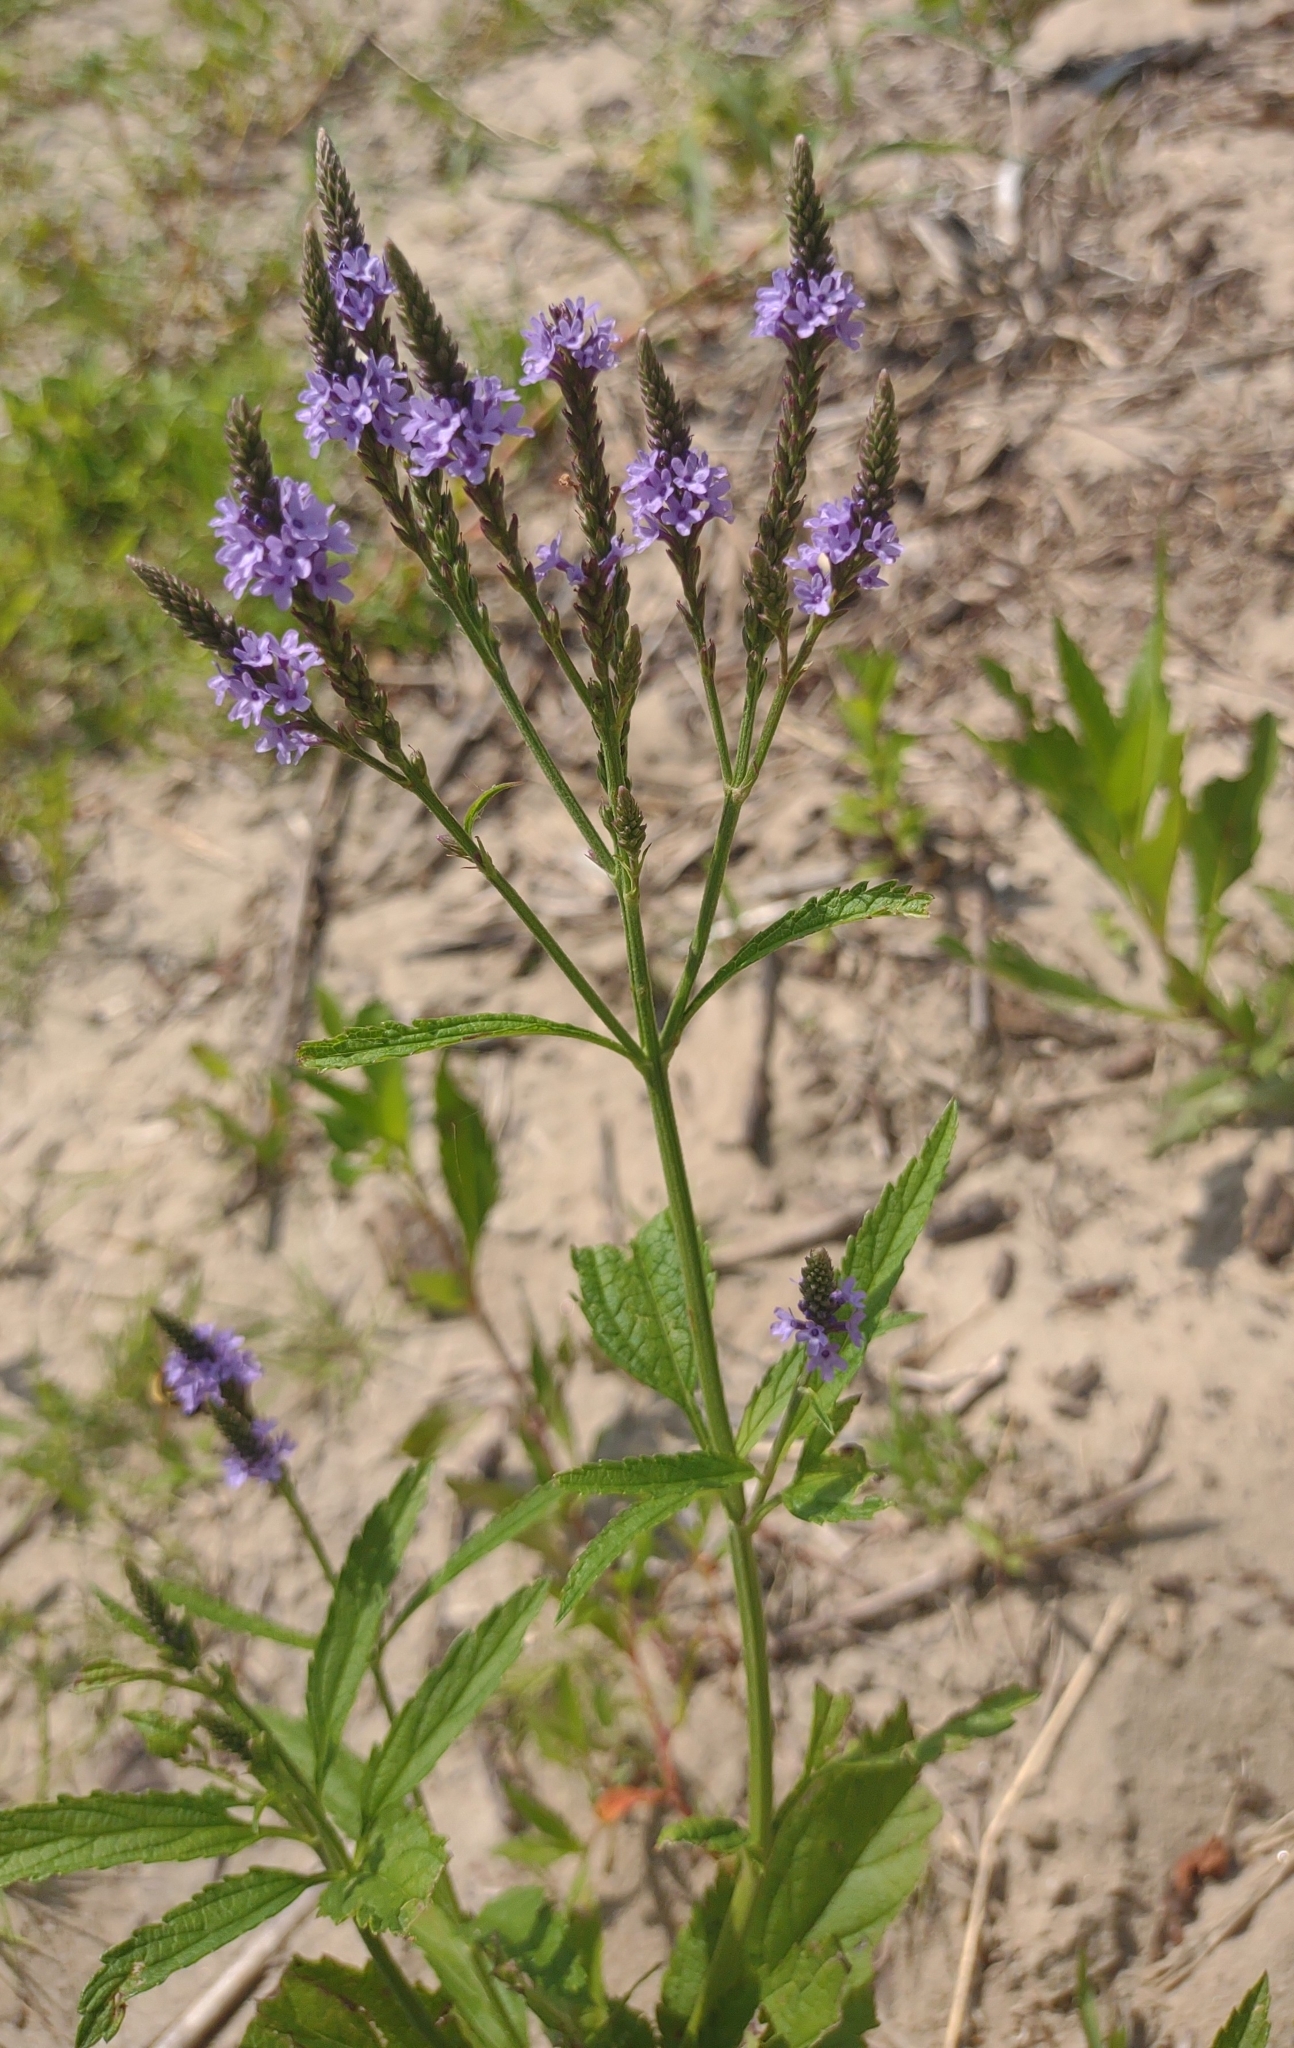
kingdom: Plantae
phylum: Tracheophyta
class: Magnoliopsida
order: Lamiales
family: Verbenaceae
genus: Verbena
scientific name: Verbena hastata
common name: American blue vervain
